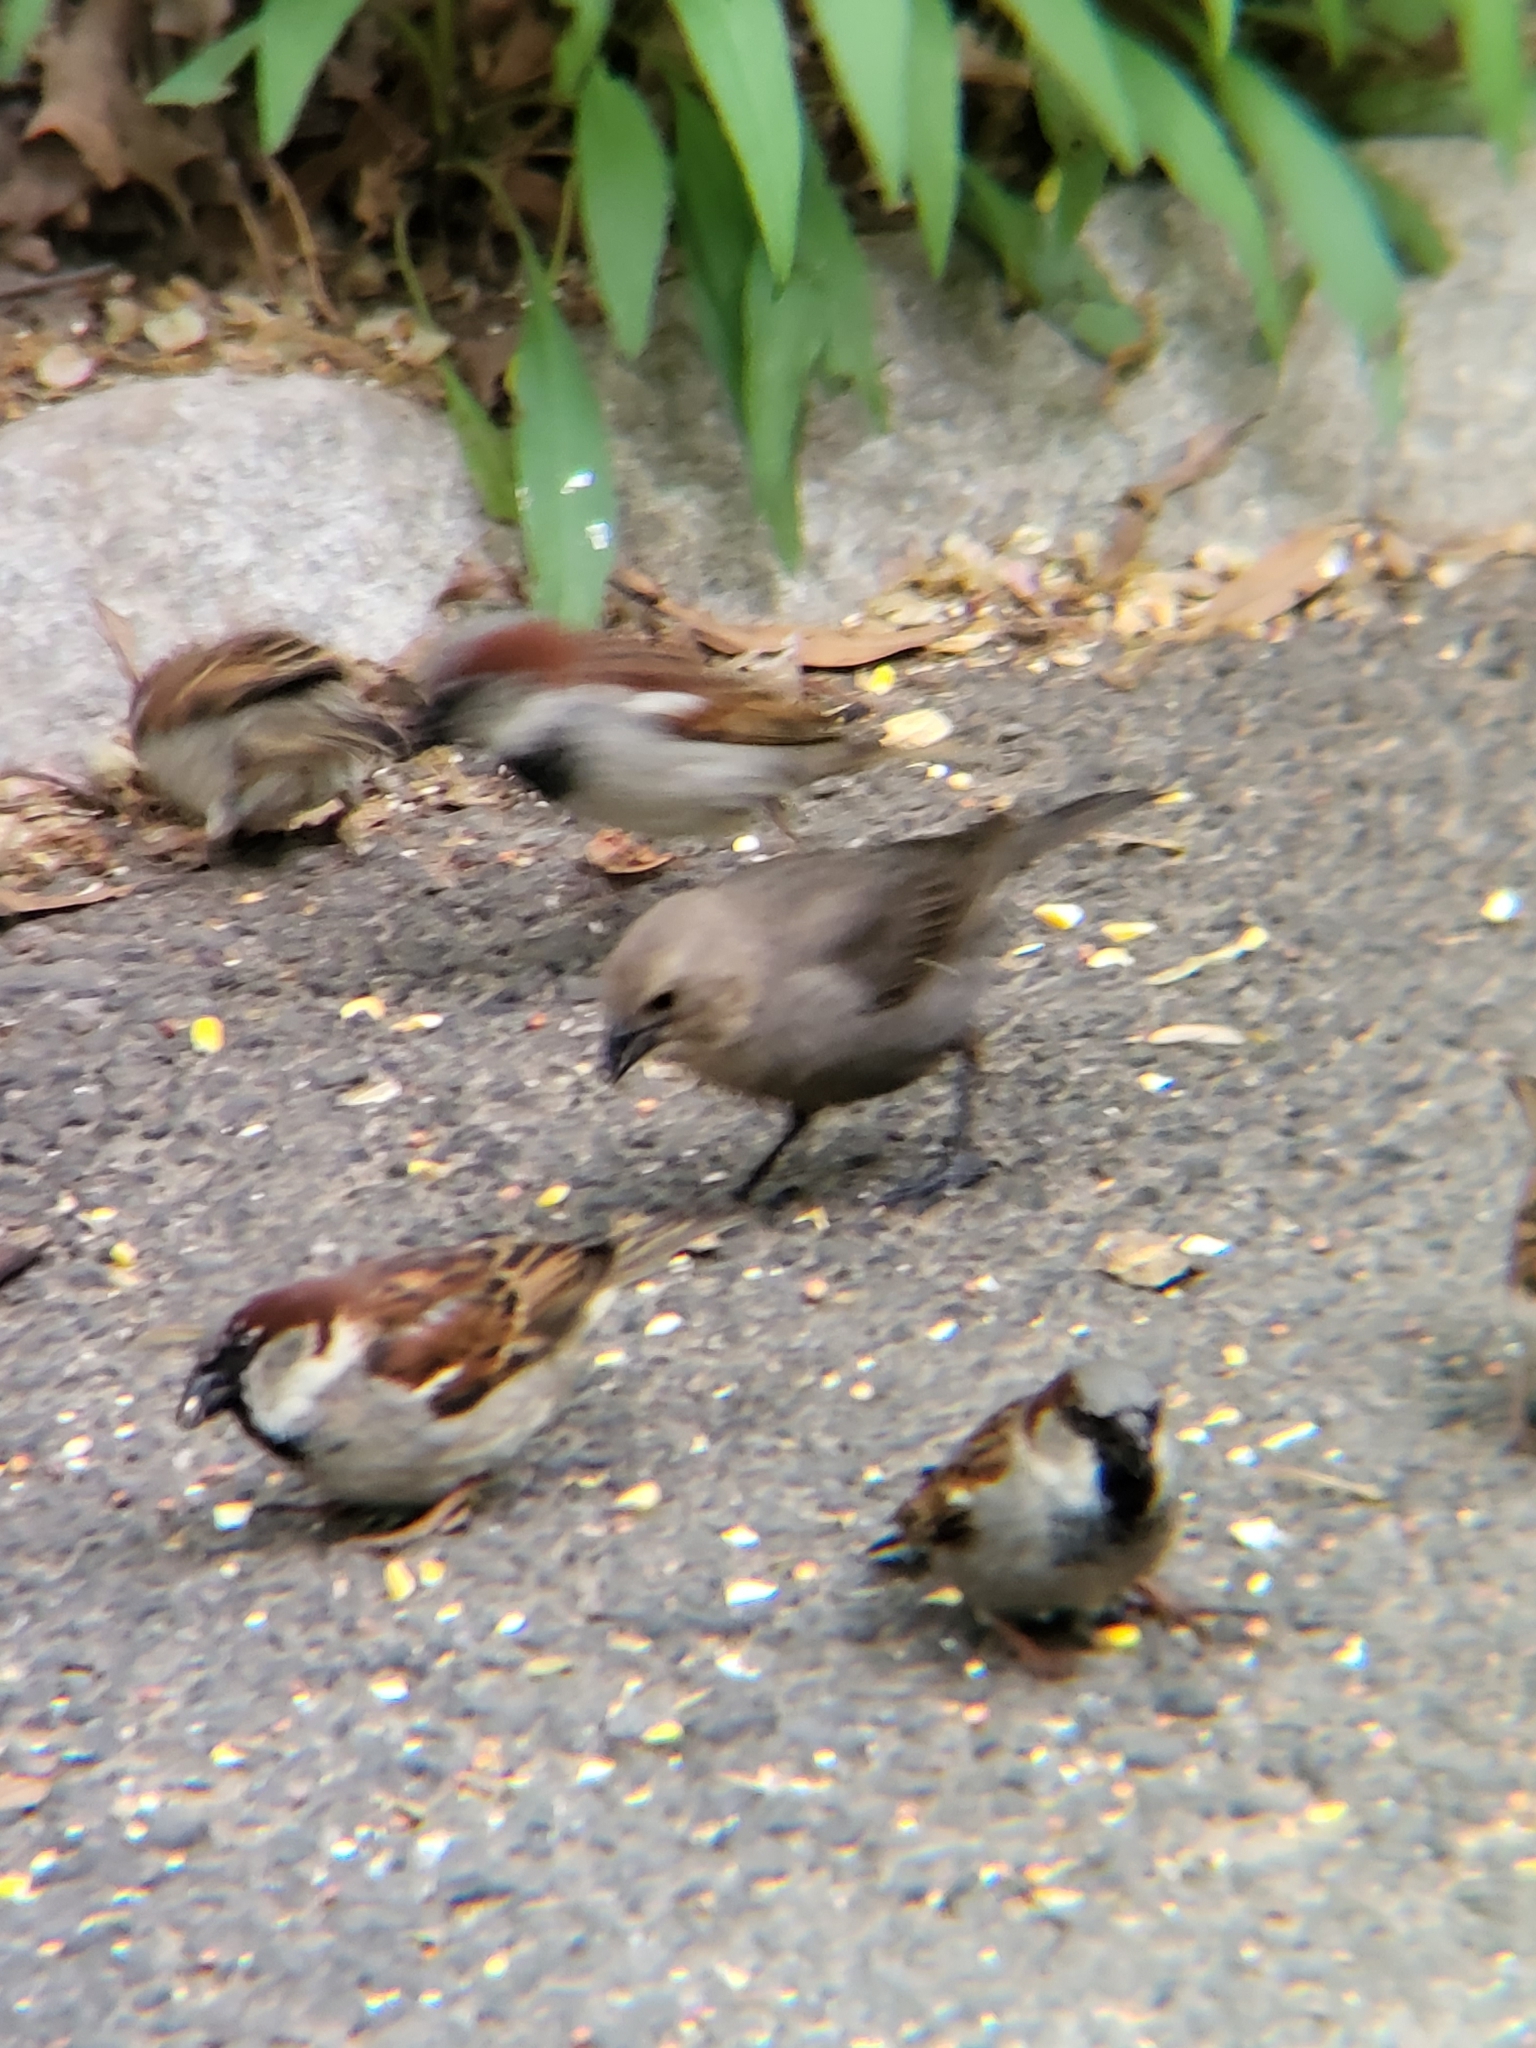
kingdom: Animalia
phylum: Chordata
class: Aves
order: Passeriformes
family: Icteridae
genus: Molothrus
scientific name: Molothrus ater
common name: Brown-headed cowbird
